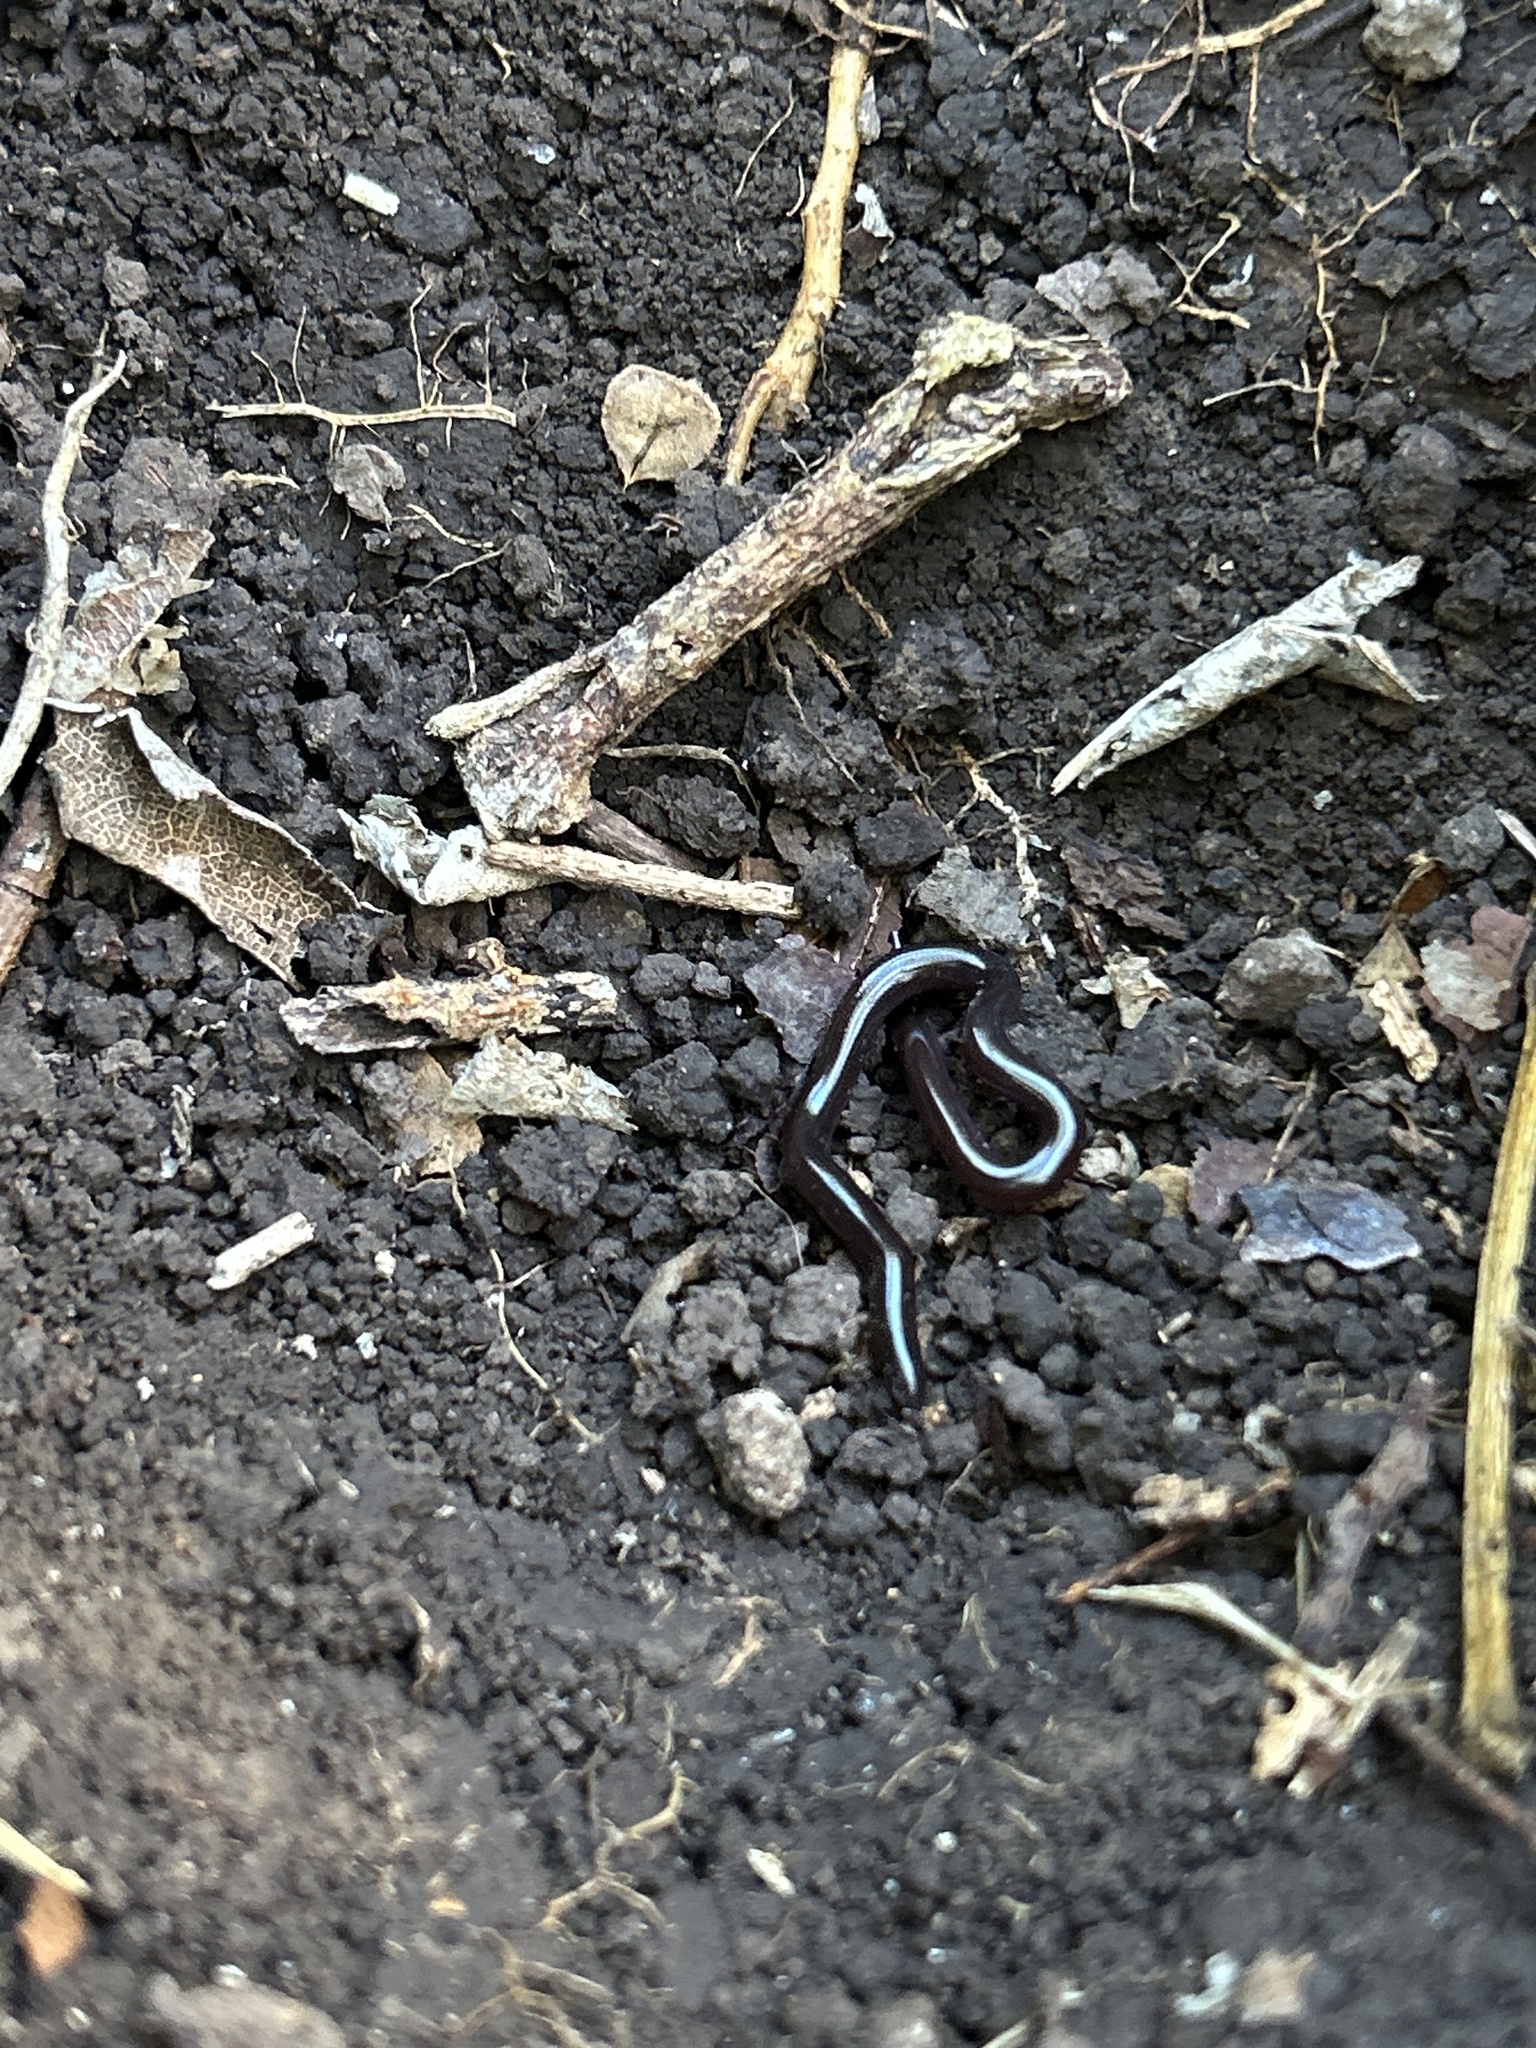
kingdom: Animalia
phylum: Chordata
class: Squamata
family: Typhlopidae
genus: Indotyphlops
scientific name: Indotyphlops braminus
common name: Brahminy blindsnake
